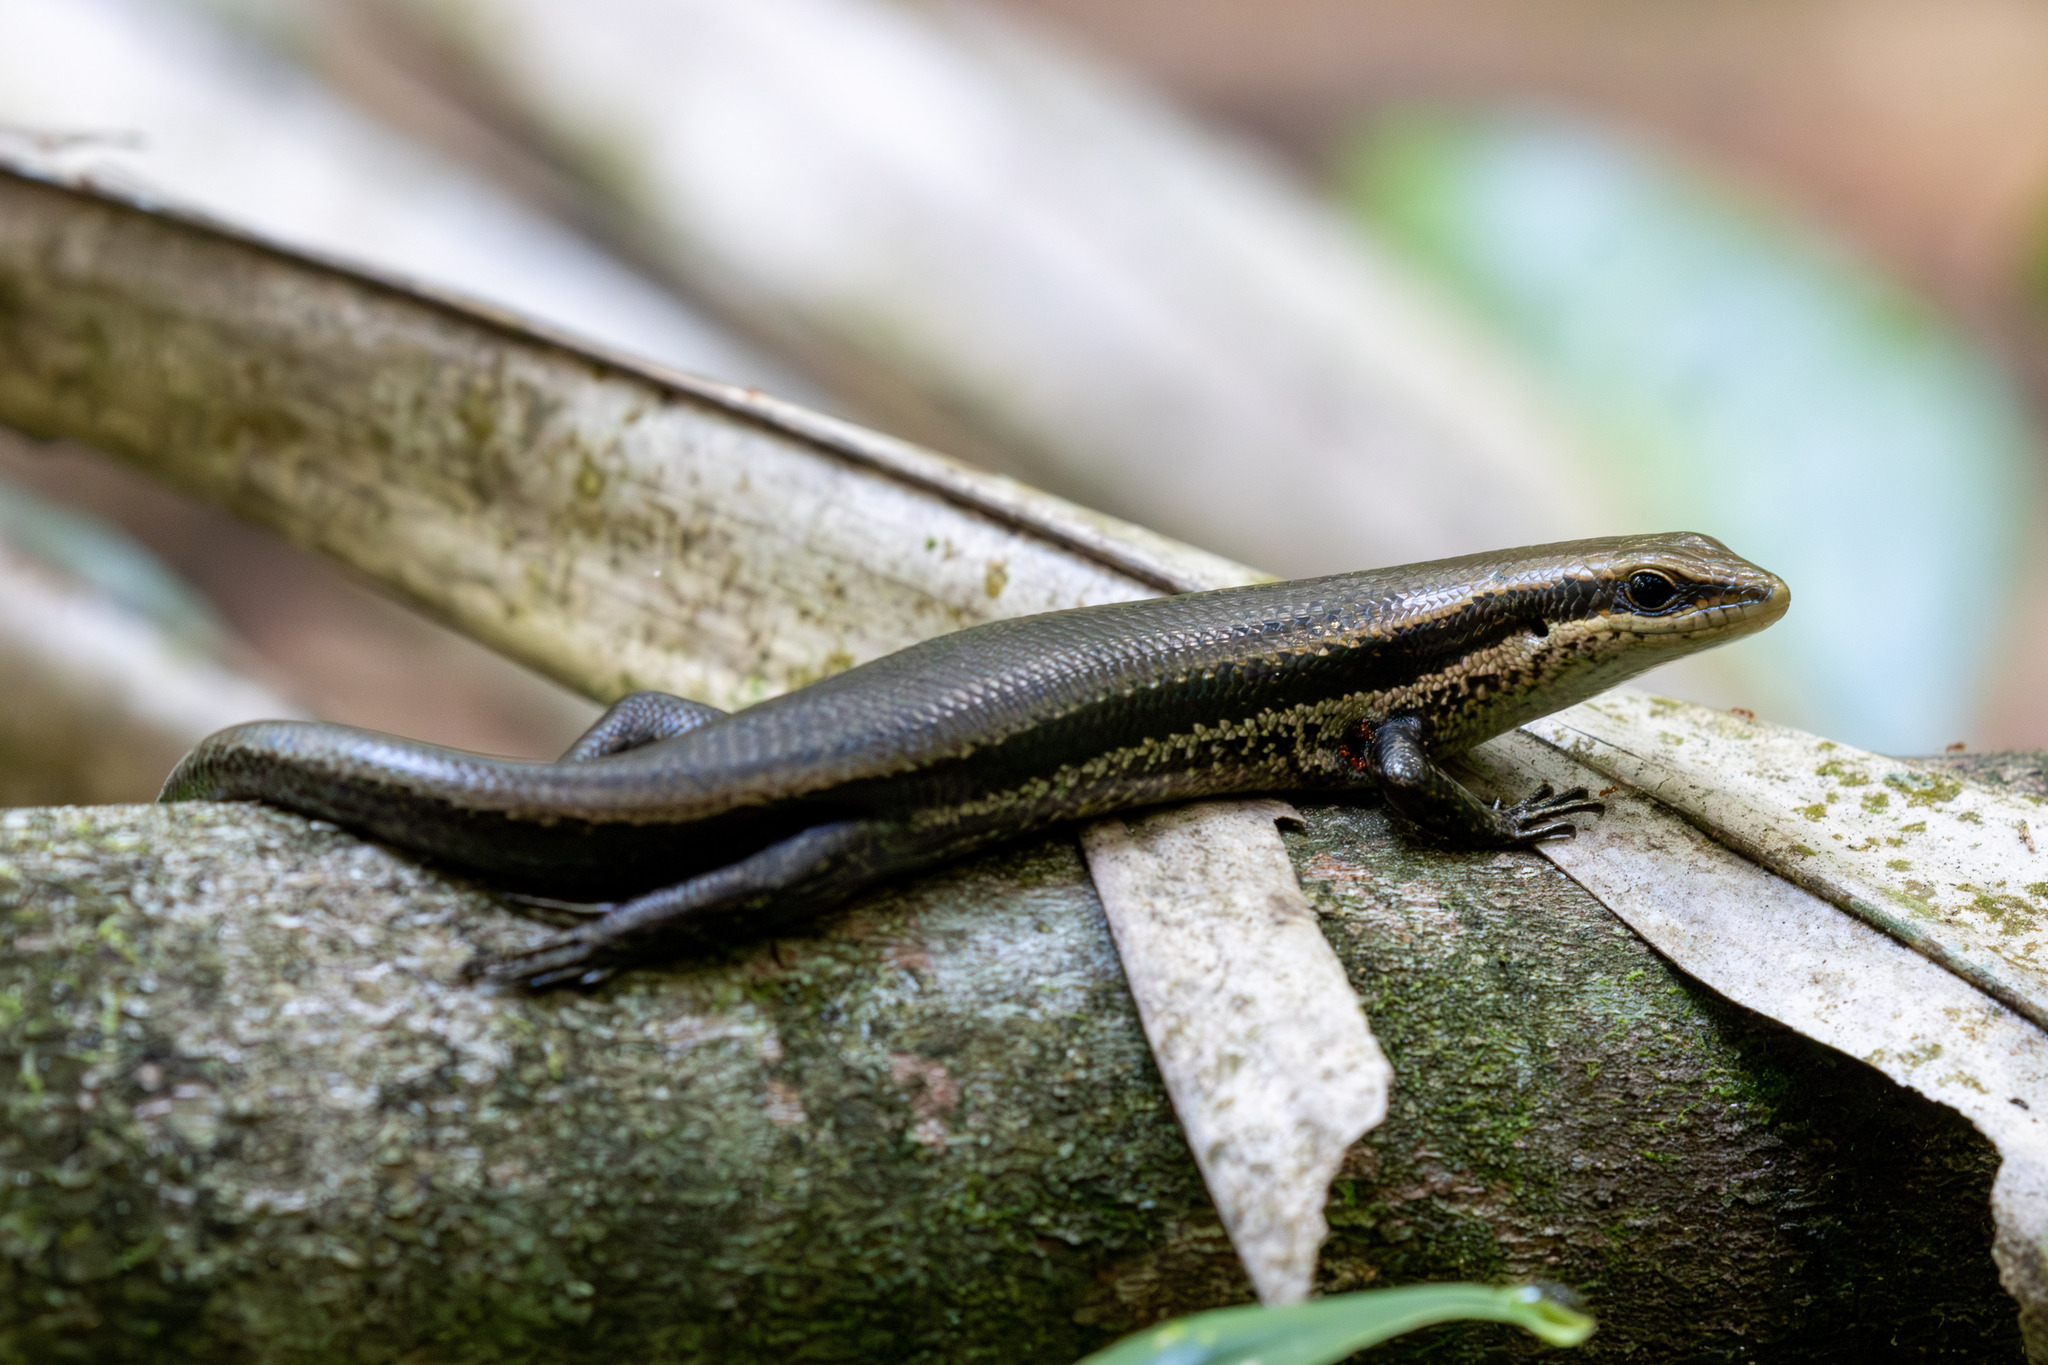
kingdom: Animalia
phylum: Chordata
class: Squamata
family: Scincidae
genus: Copeoglossum
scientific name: Copeoglossum nigropunctatum
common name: Black-spotted skink
